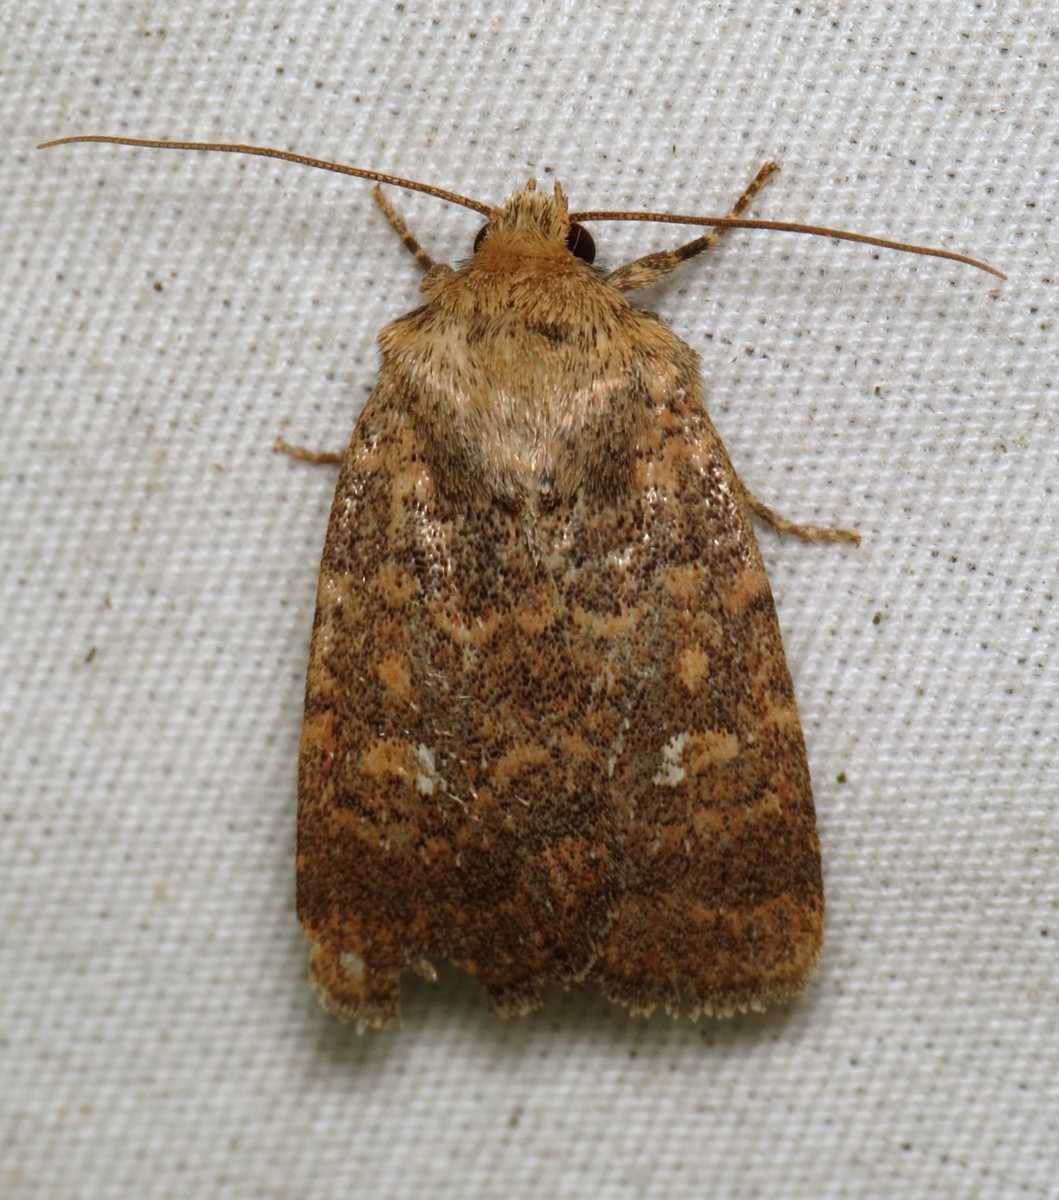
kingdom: Animalia
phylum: Arthropoda
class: Insecta
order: Lepidoptera
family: Noctuidae
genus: Homorthodes
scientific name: Homorthodes lindseyi
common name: Southern scurfy quaker
